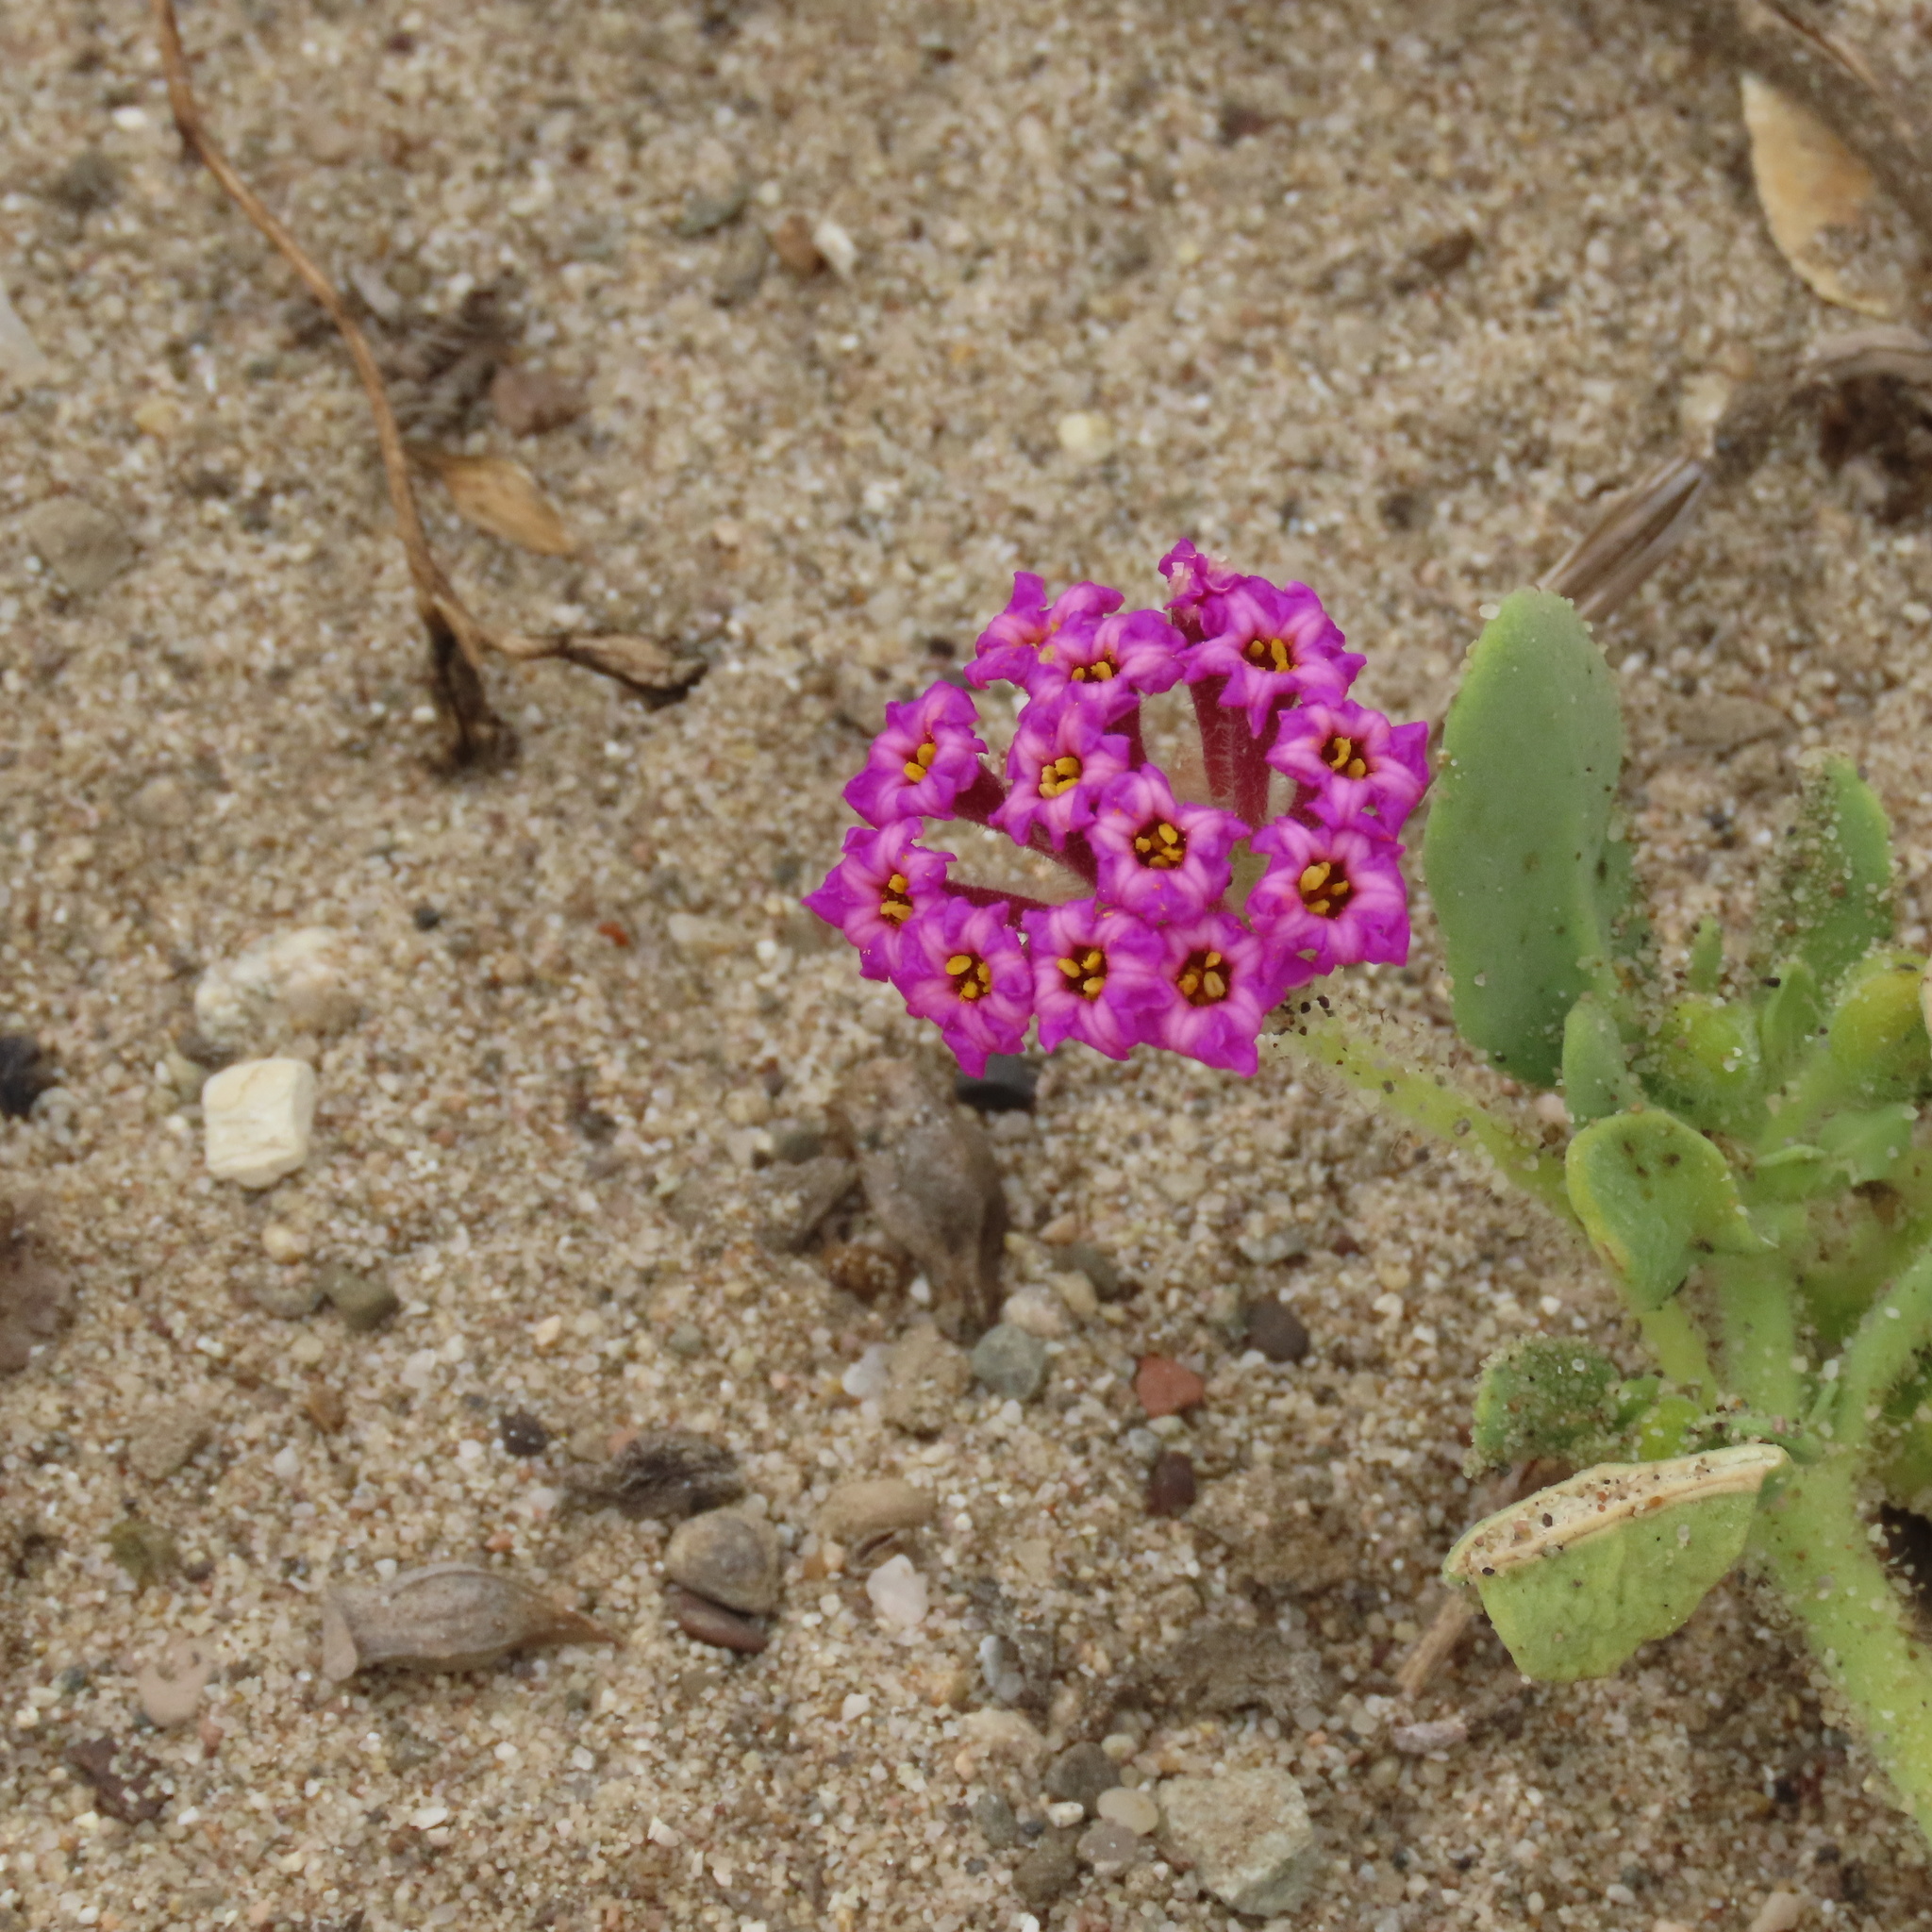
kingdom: Plantae
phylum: Tracheophyta
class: Magnoliopsida
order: Caryophyllales
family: Nyctaginaceae
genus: Abronia
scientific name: Abronia maritima
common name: Red sand-verbena
